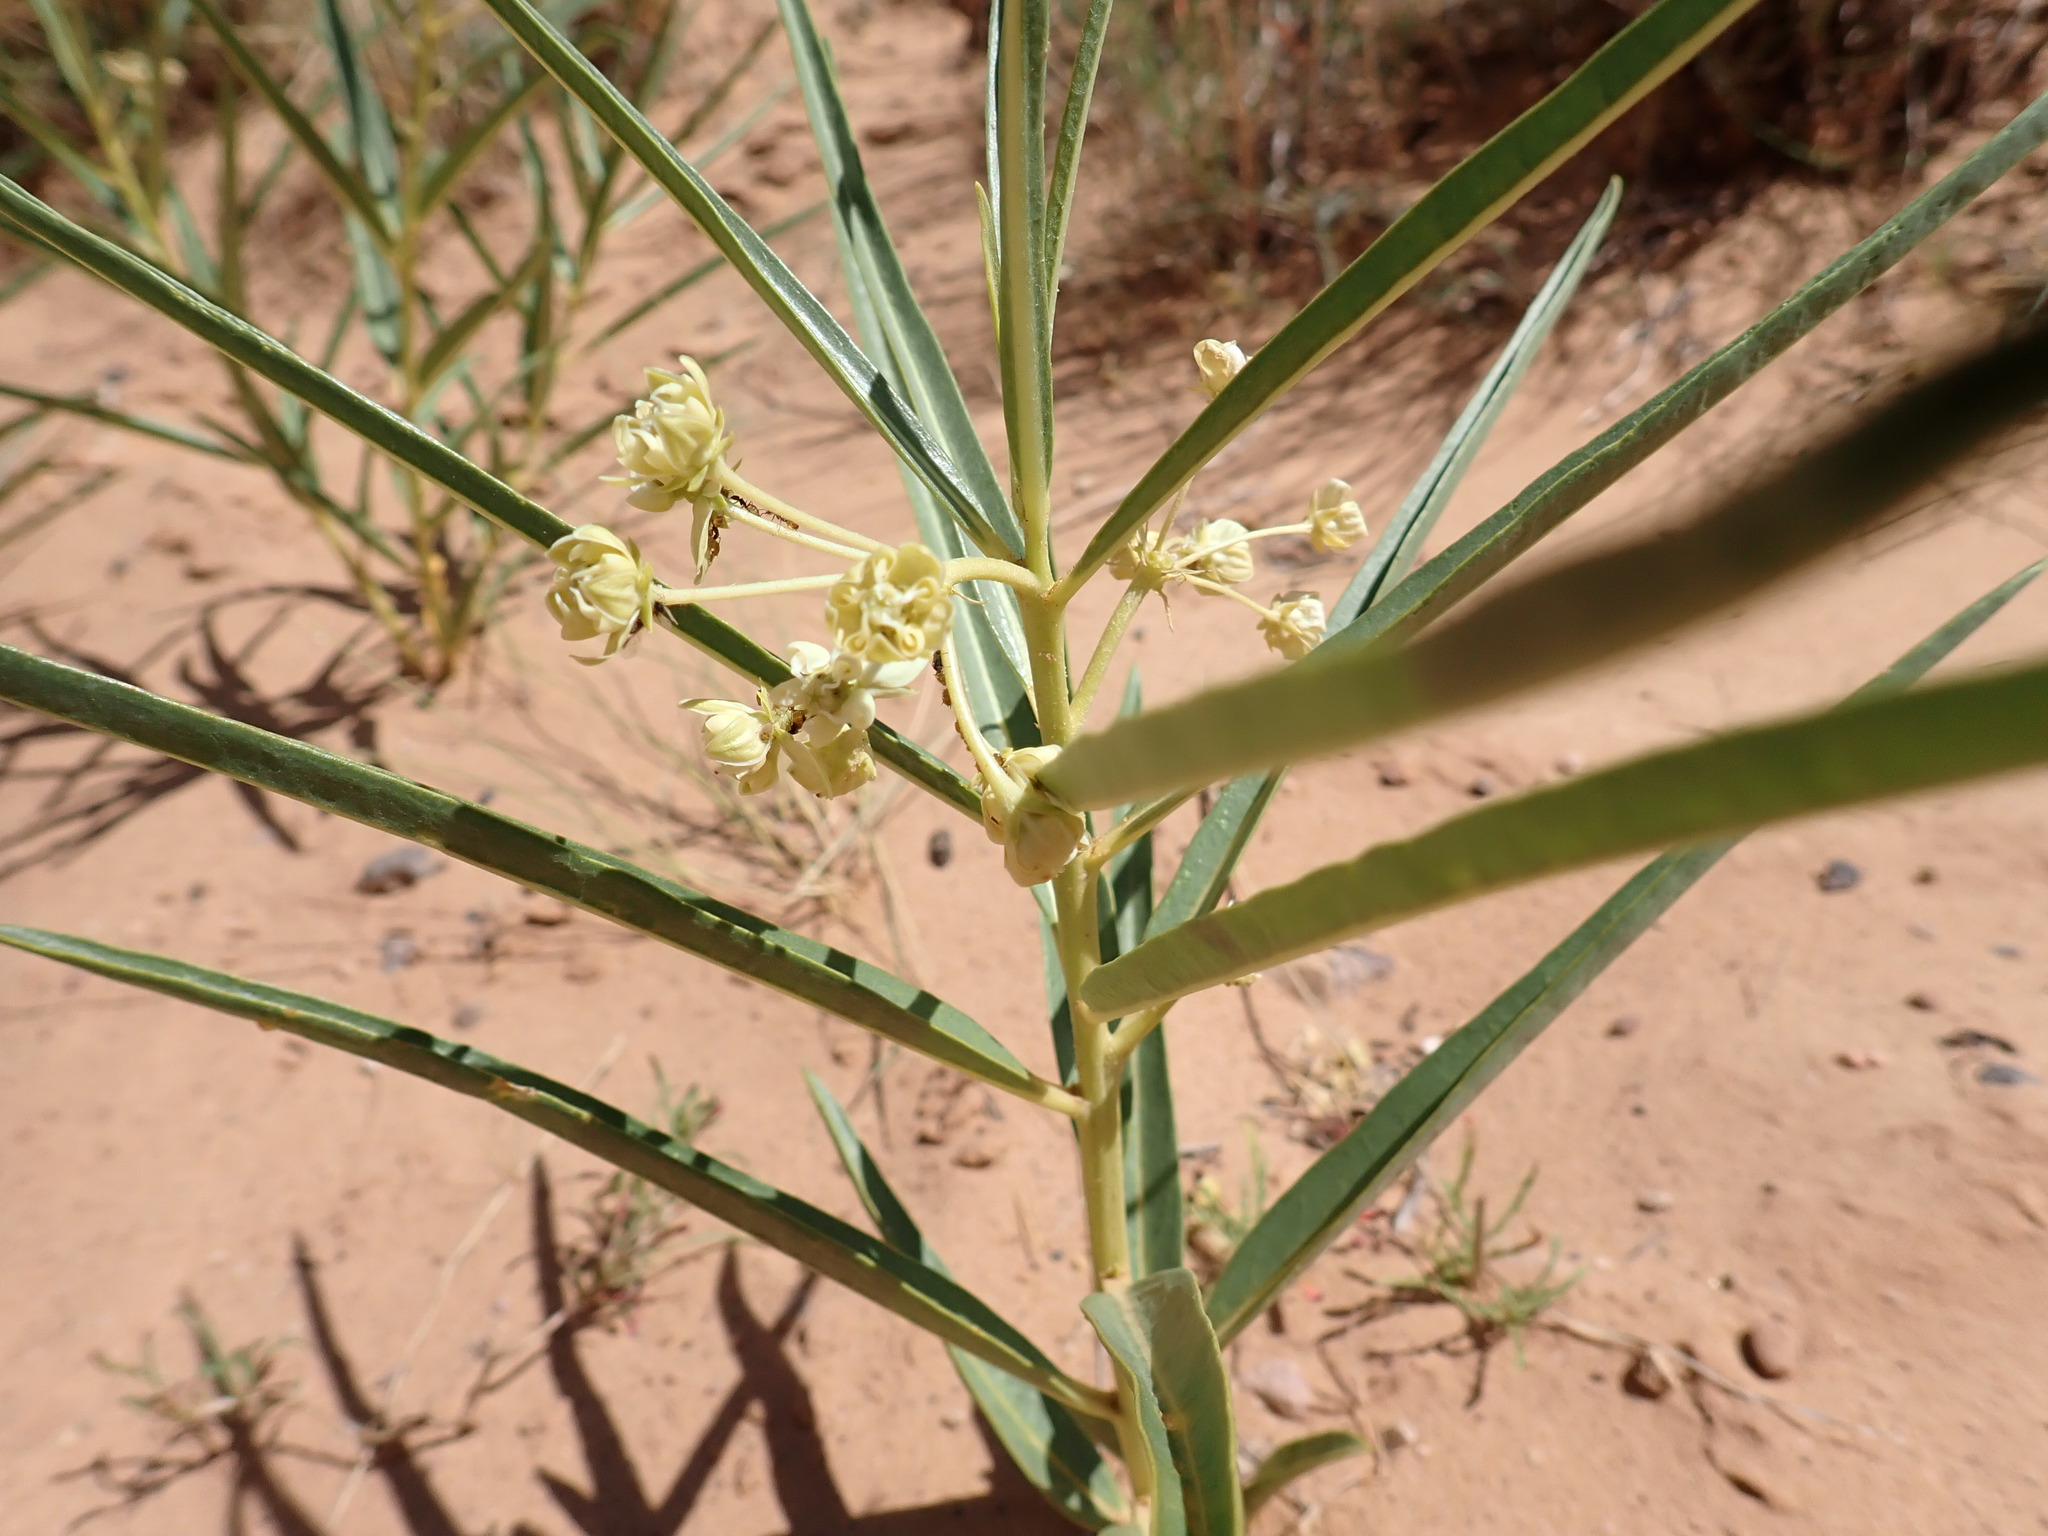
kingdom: Plantae
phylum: Tracheophyta
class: Magnoliopsida
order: Gentianales
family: Apocynaceae
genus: Asclepias
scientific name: Asclepias labriformis
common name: Labriformis milkweed
